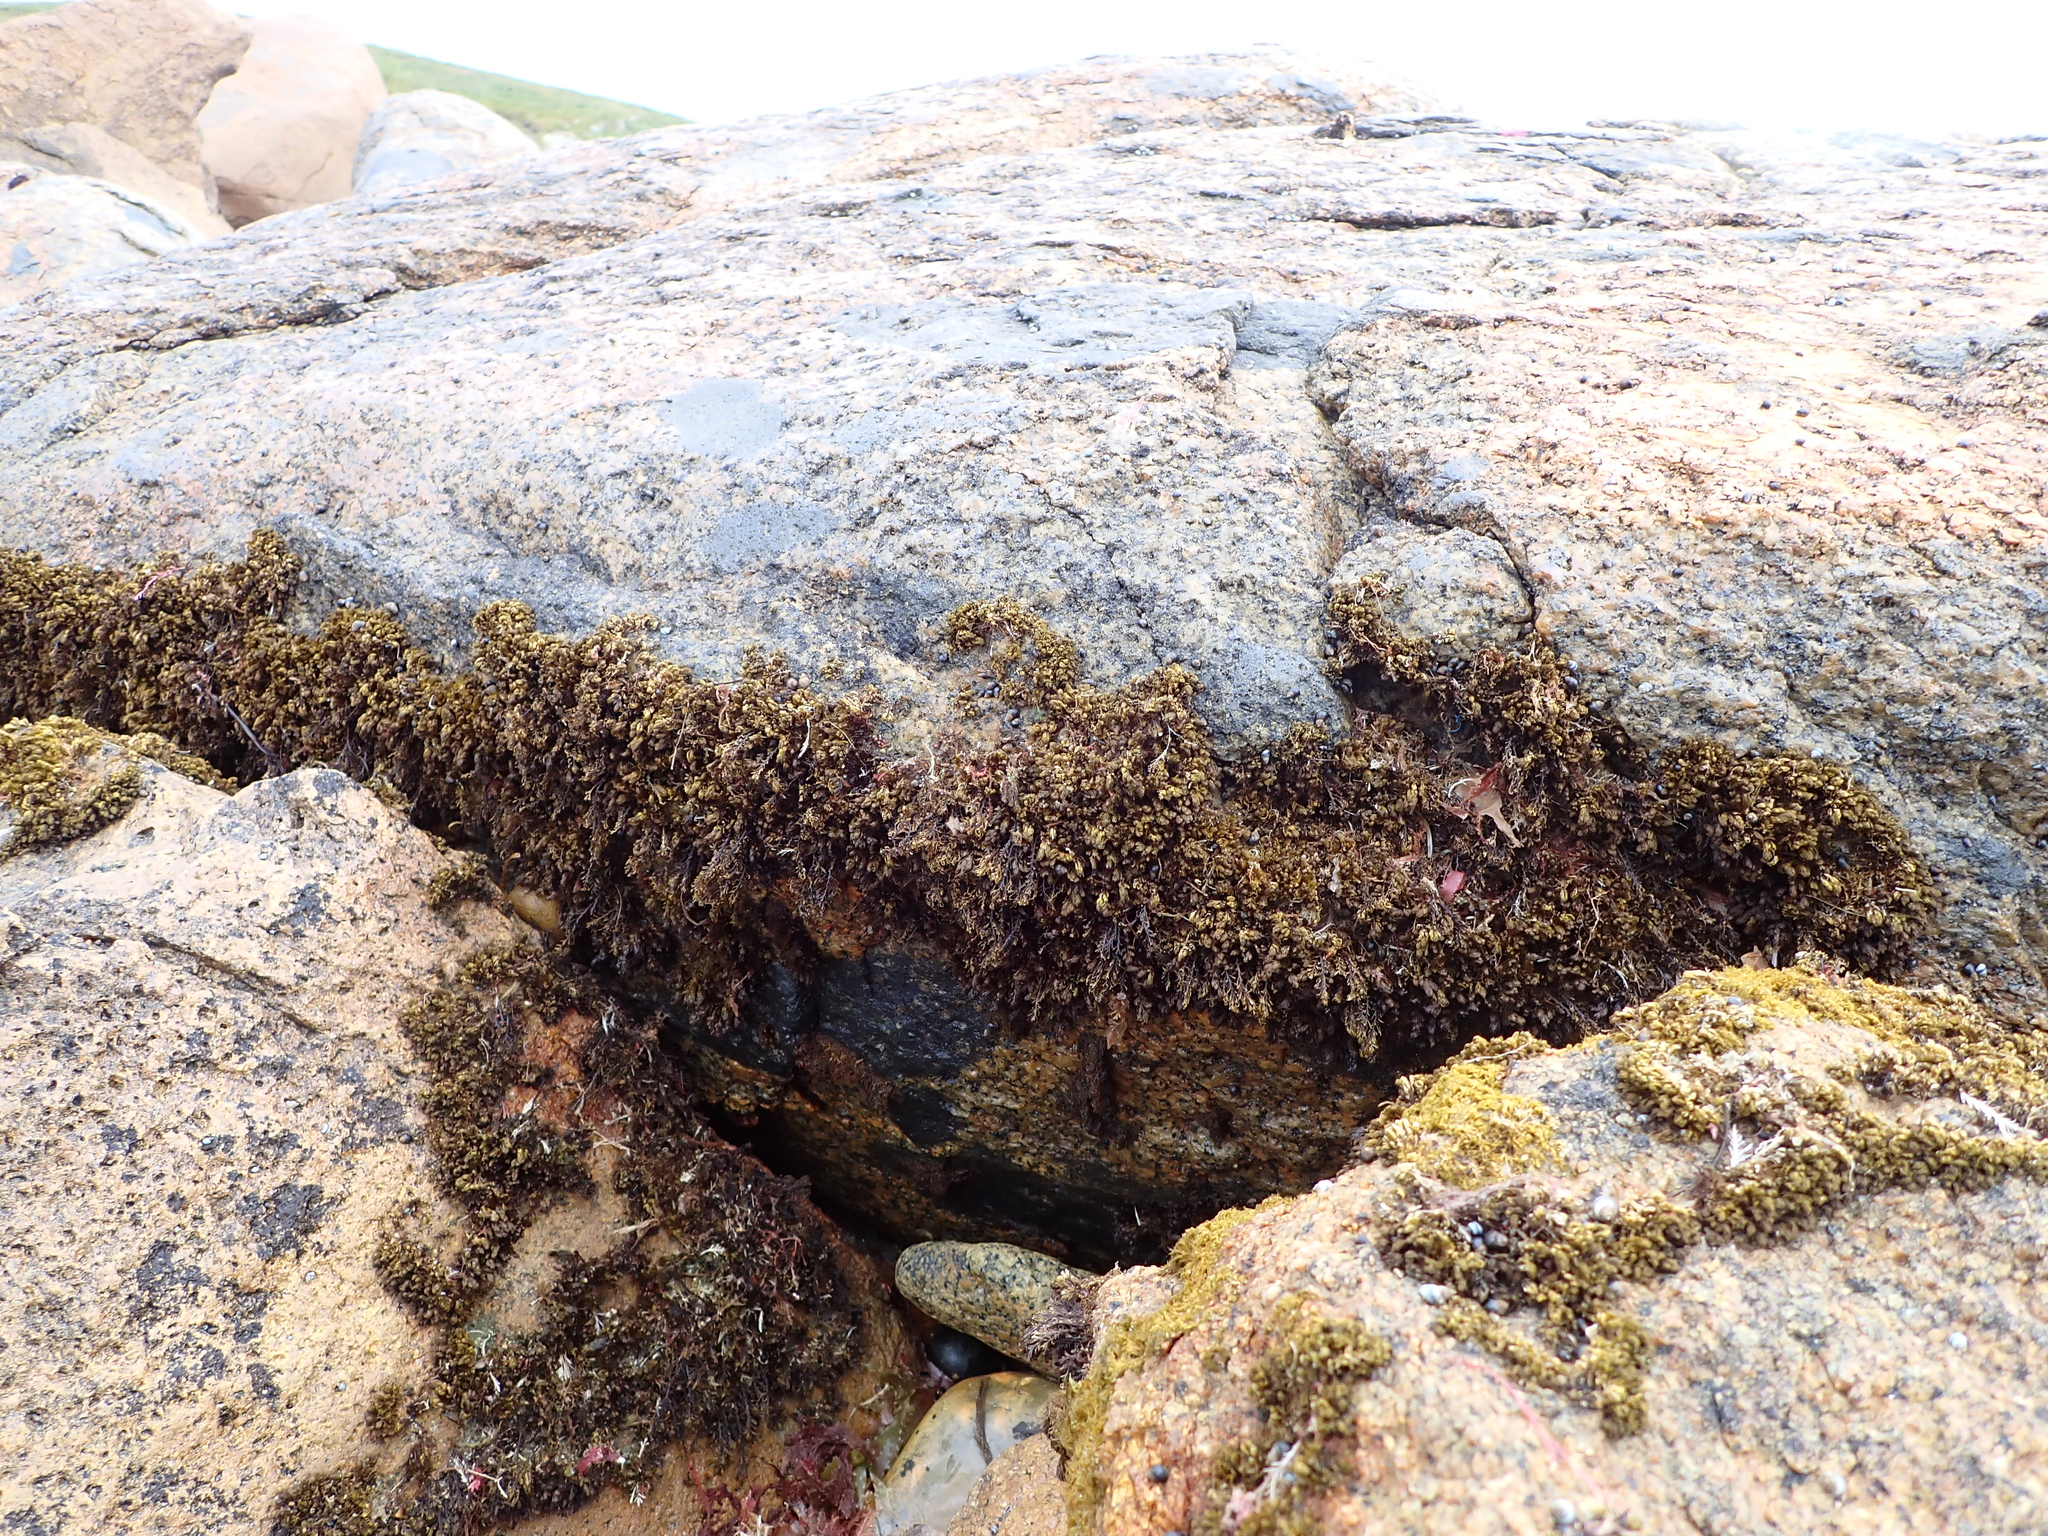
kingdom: Plantae
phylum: Rhodophyta
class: Florideophyceae
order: Ceramiales
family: Rhodomelaceae
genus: Bostrychia
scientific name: Bostrychia arbuscula
